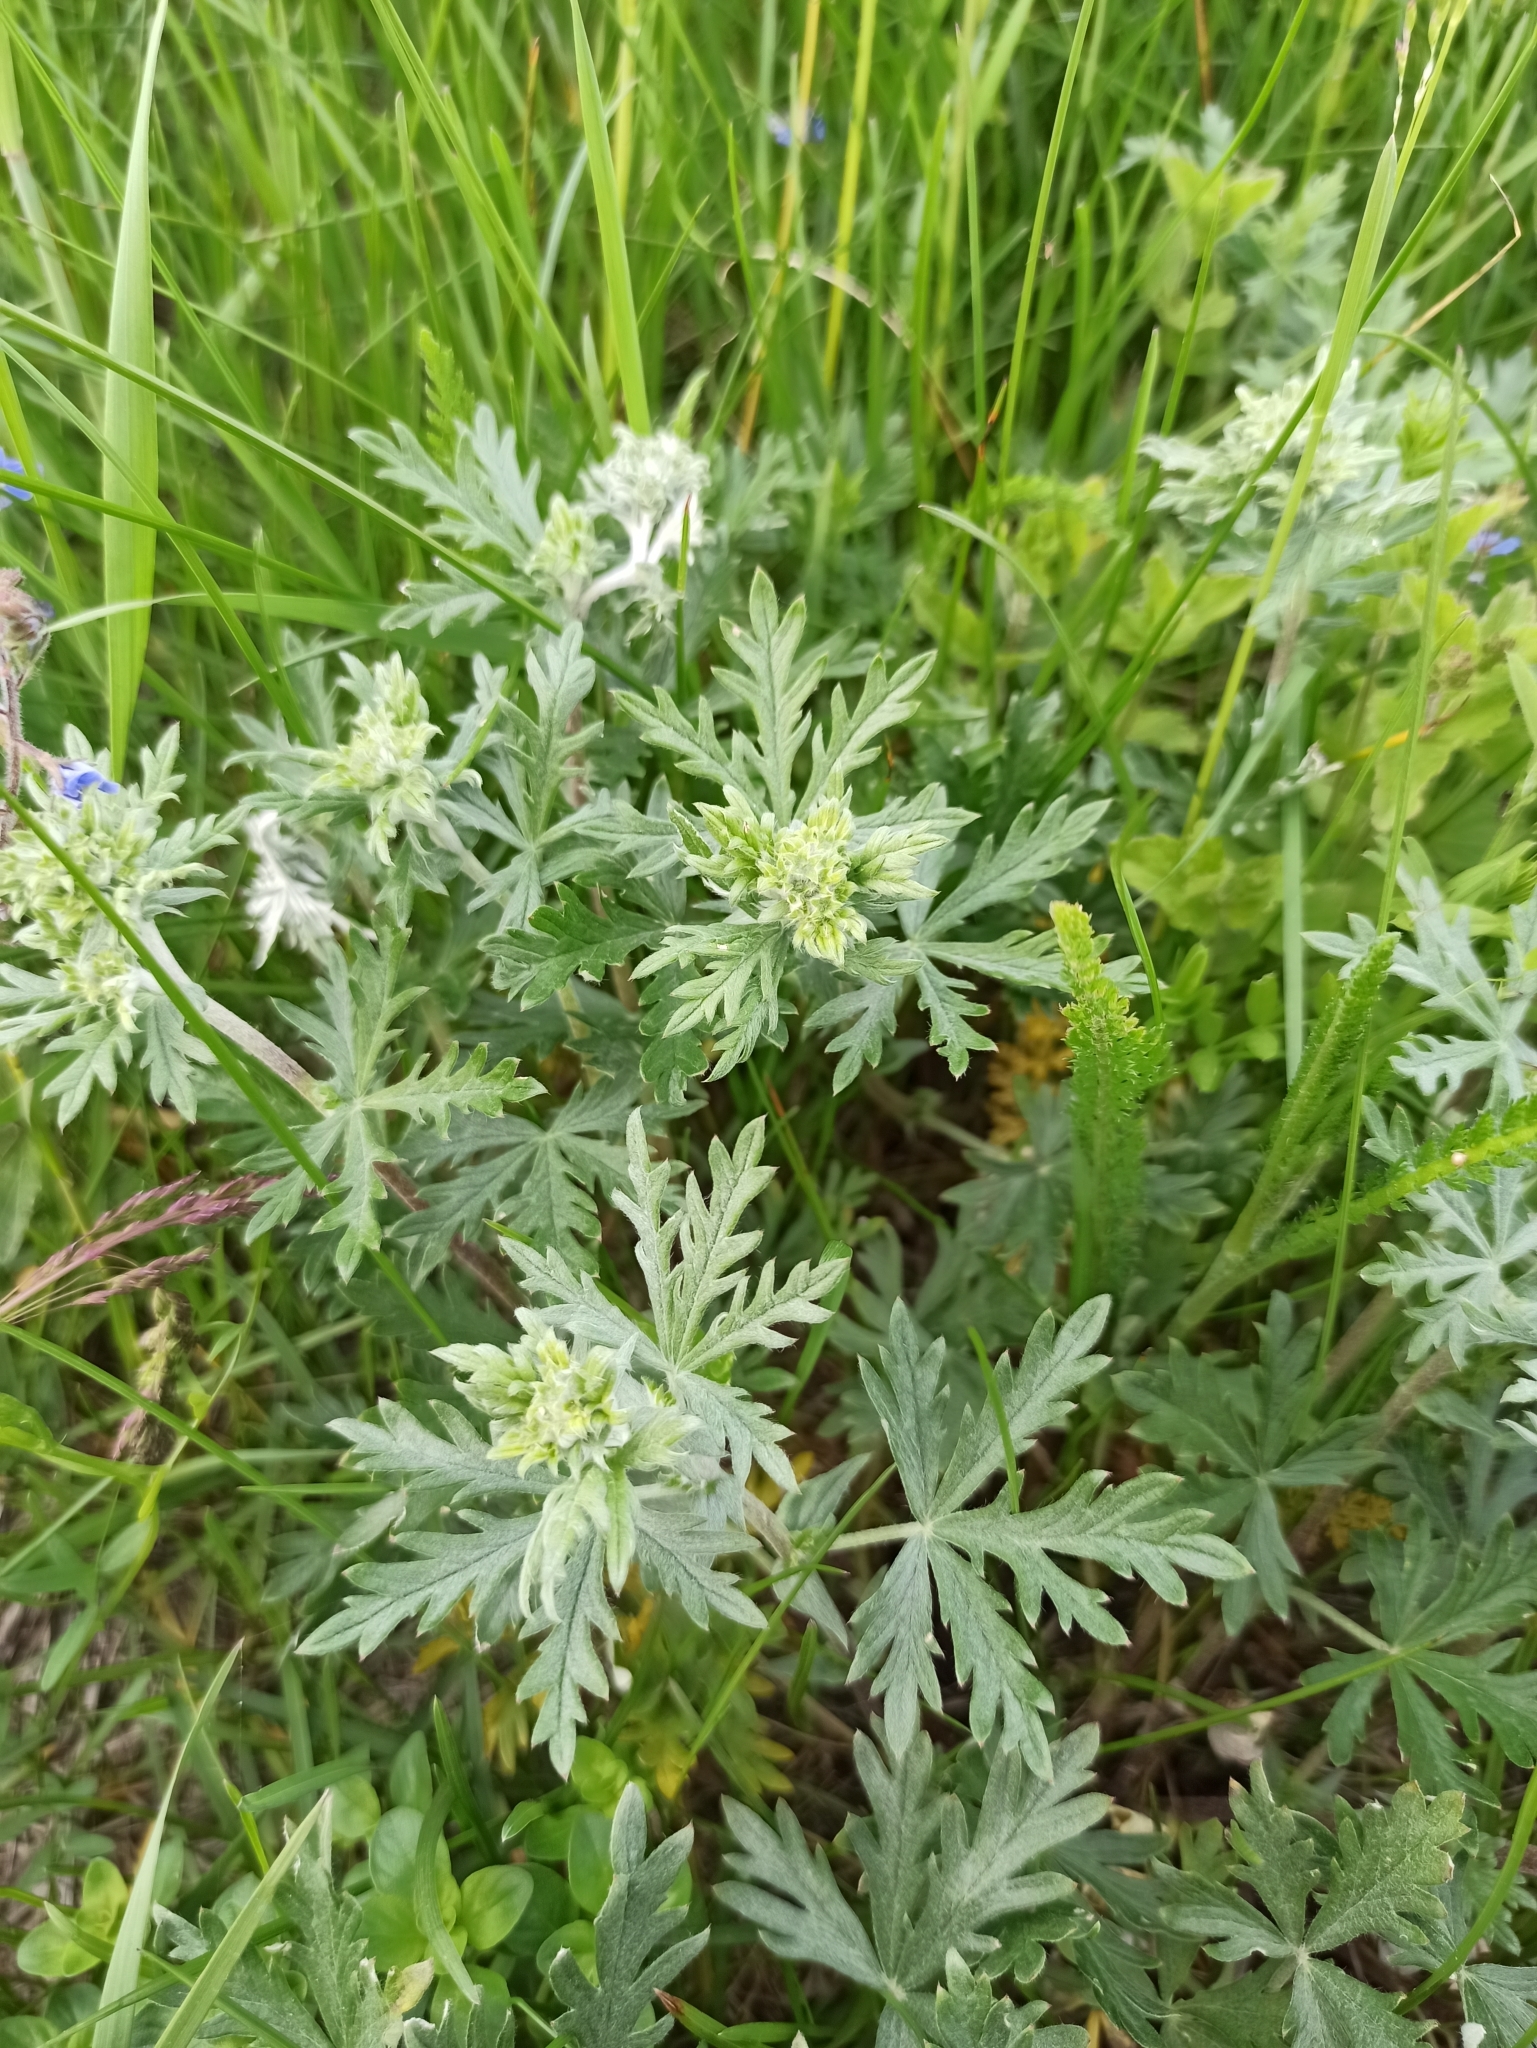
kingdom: Plantae
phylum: Tracheophyta
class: Magnoliopsida
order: Rosales
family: Rosaceae
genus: Potentilla
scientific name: Potentilla argentea
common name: Hoary cinquefoil
